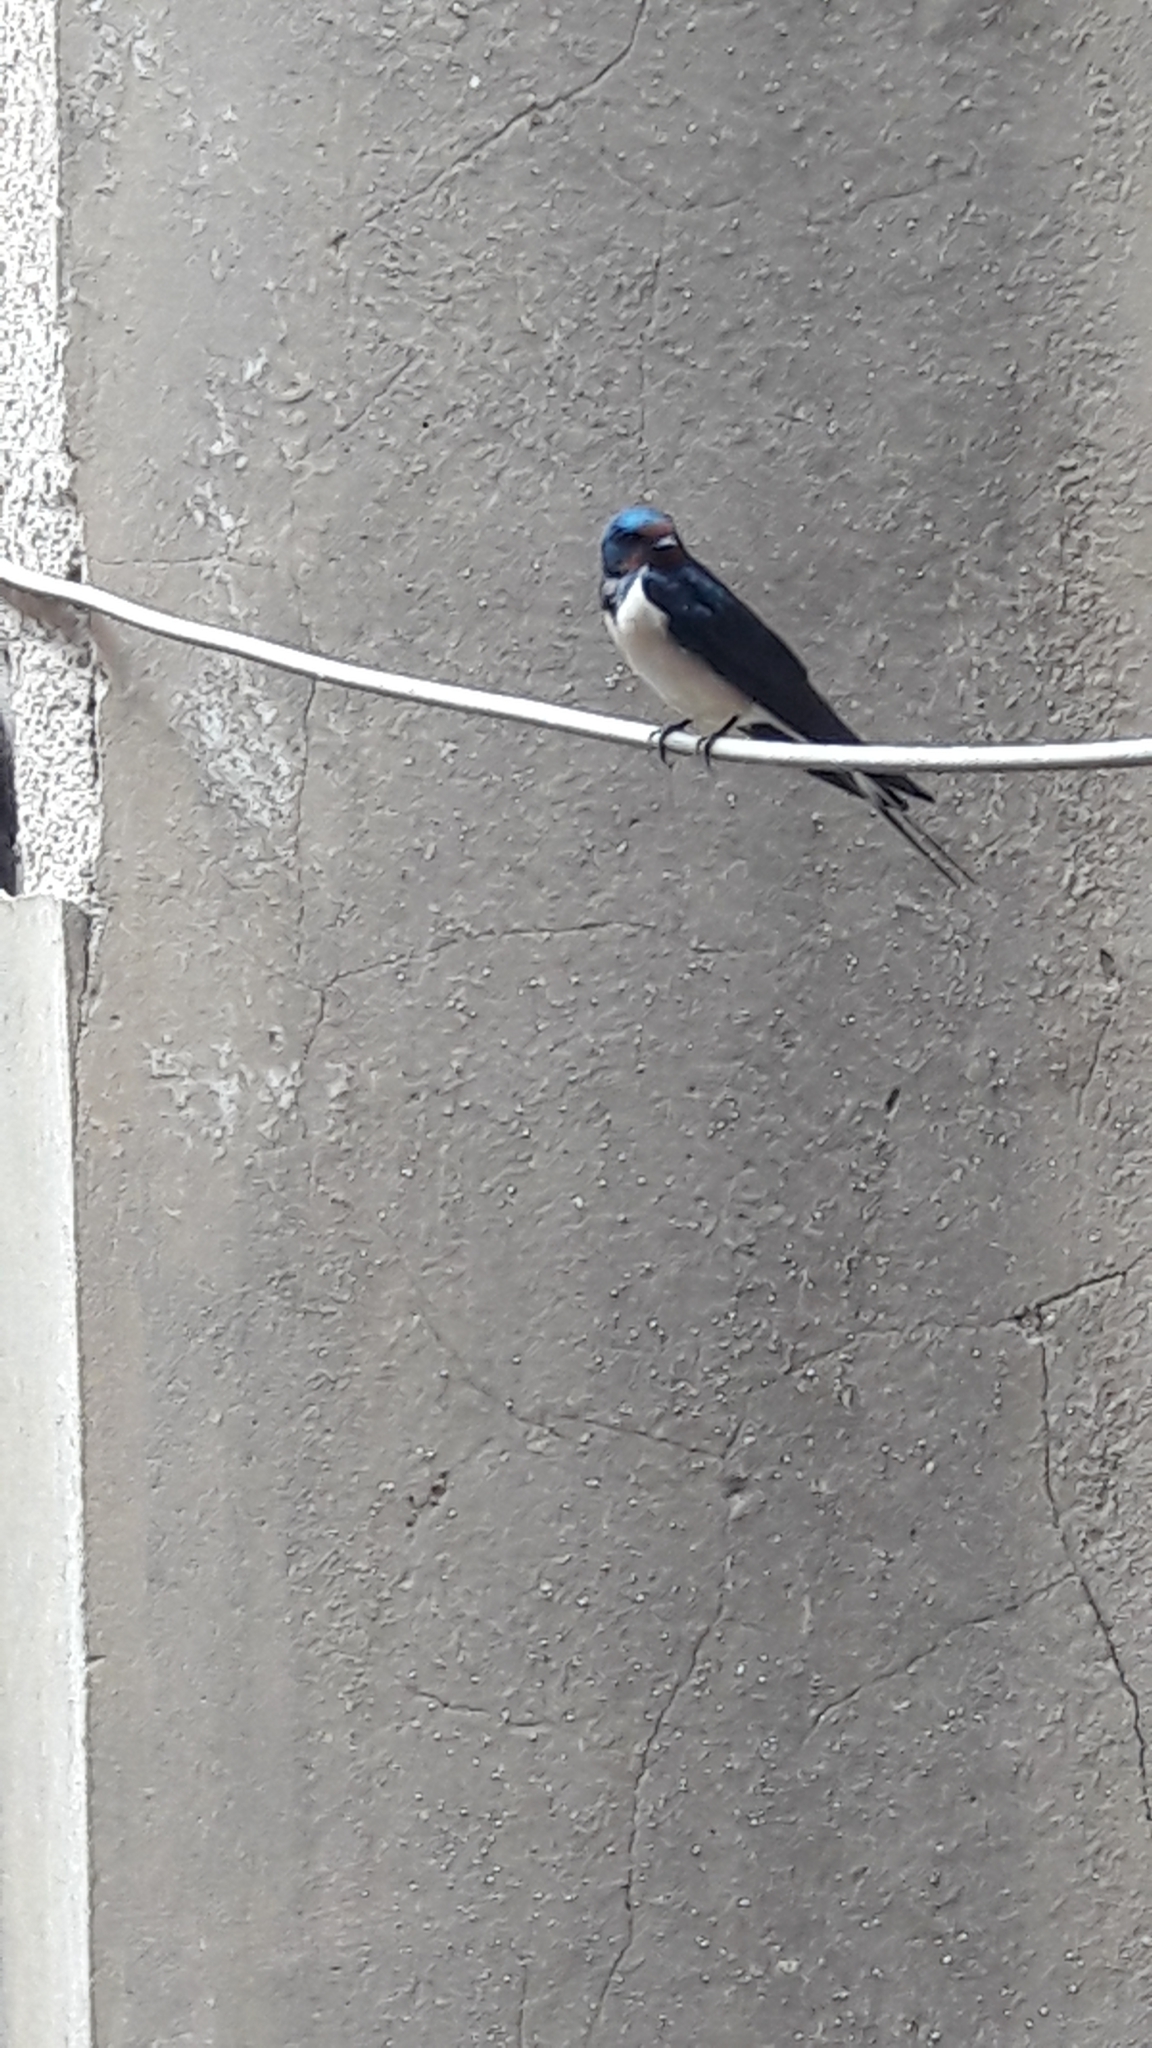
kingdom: Animalia
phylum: Chordata
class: Aves
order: Passeriformes
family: Hirundinidae
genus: Hirundo
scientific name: Hirundo rustica
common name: Barn swallow
